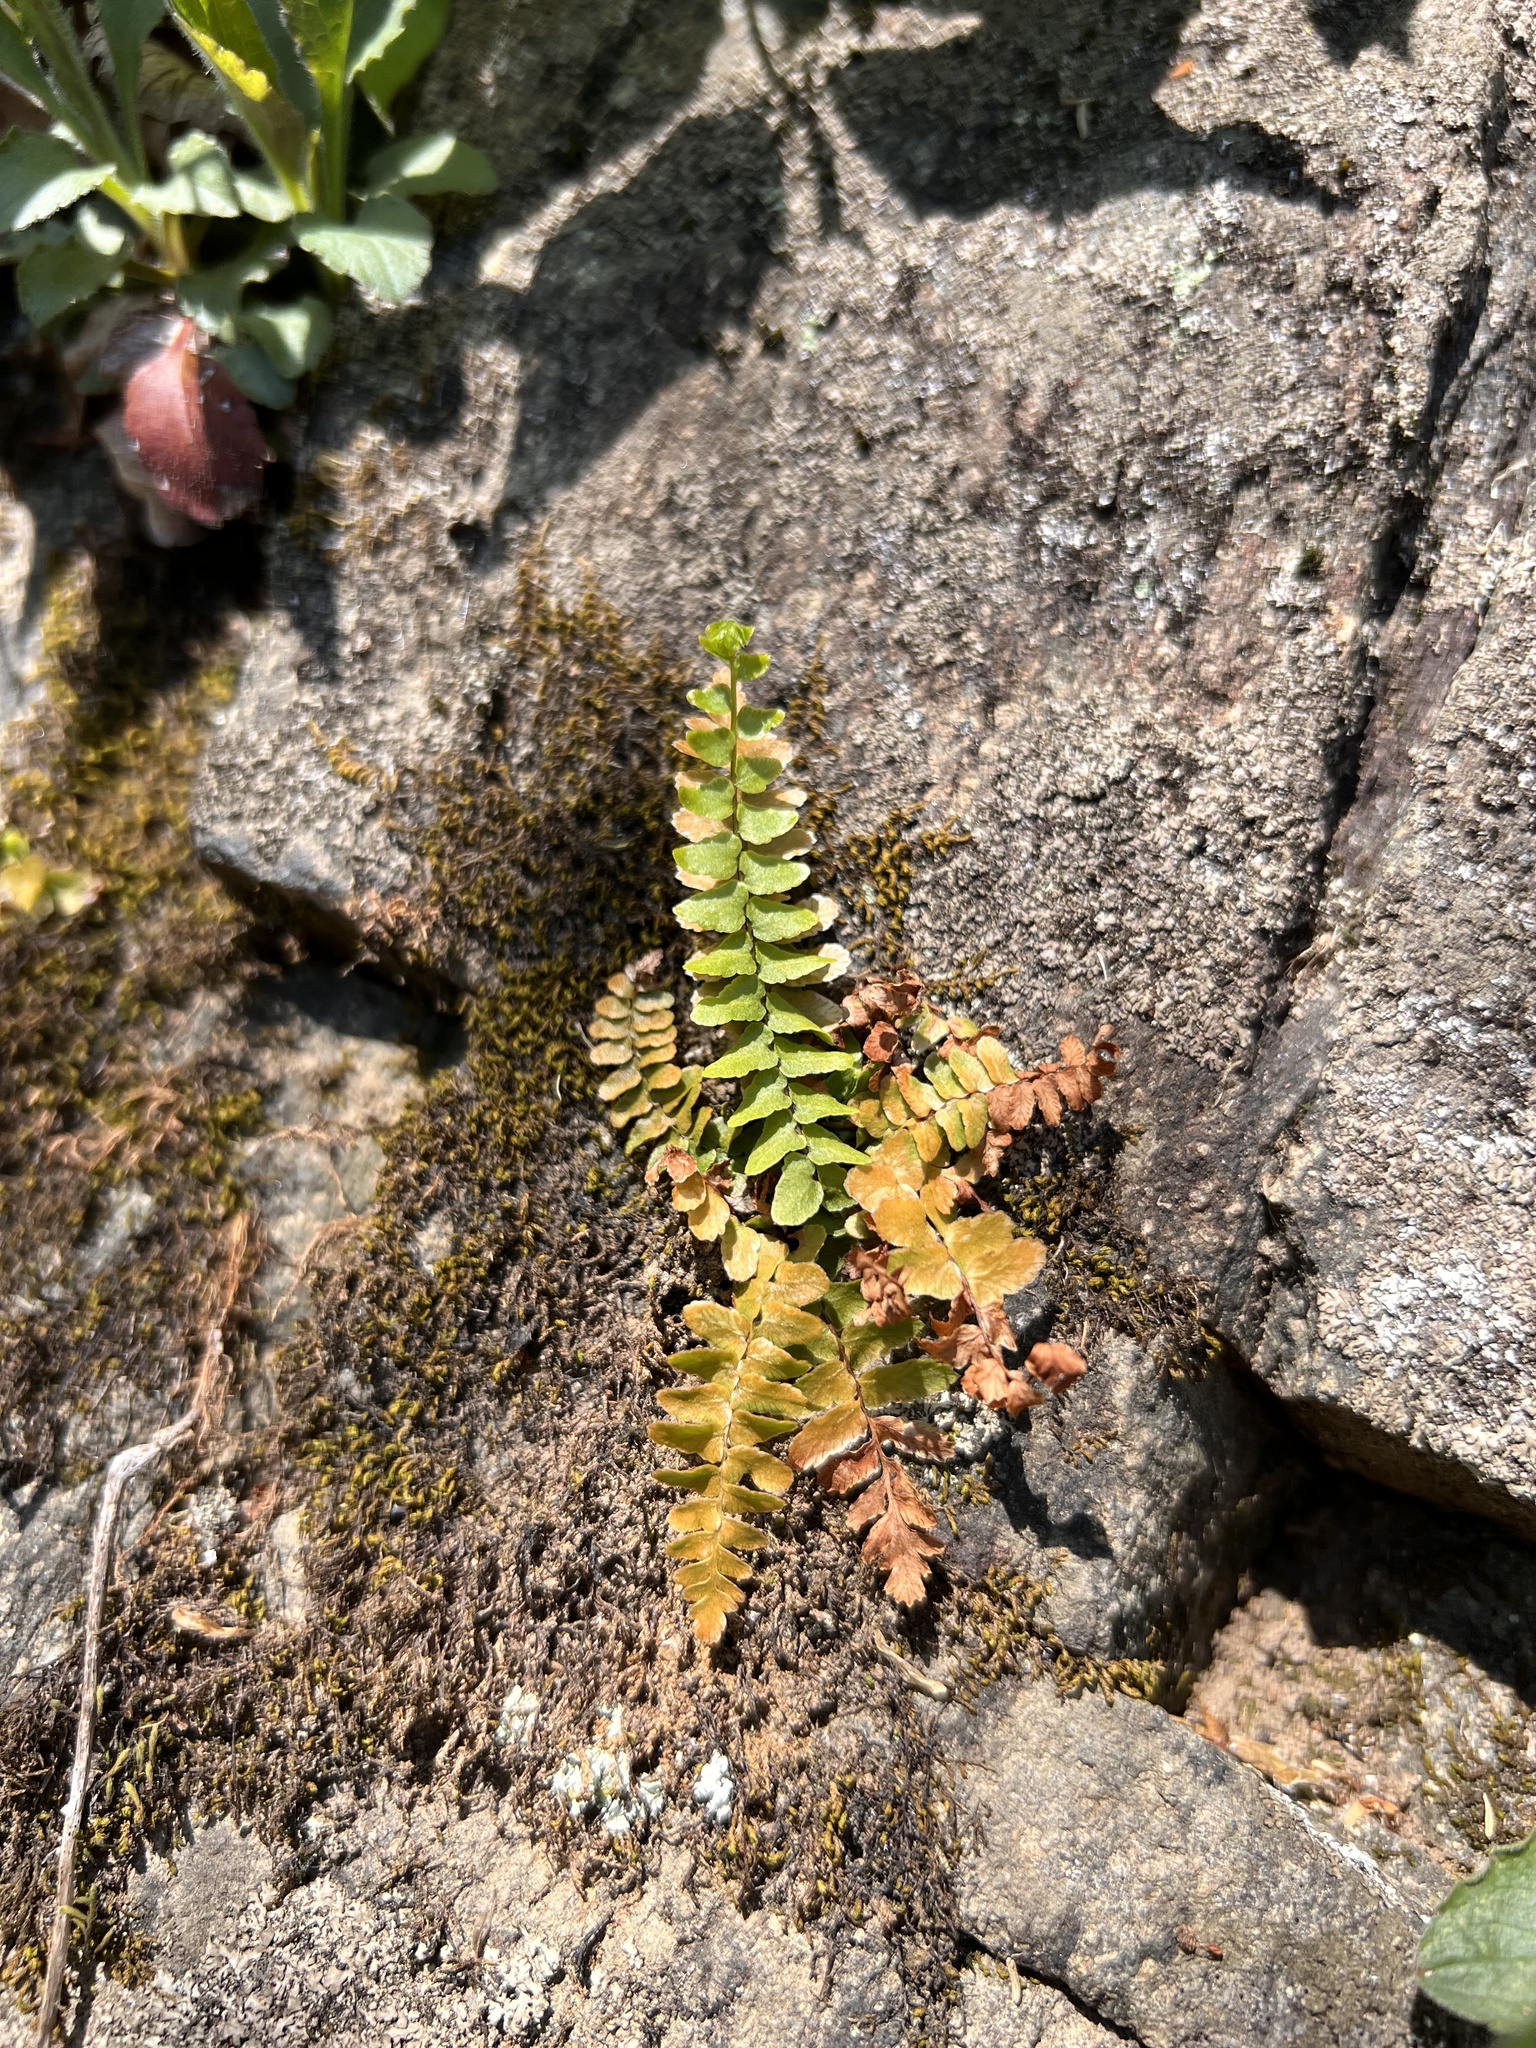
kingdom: Plantae
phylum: Tracheophyta
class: Polypodiopsida
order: Polypodiales
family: Aspleniaceae
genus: Asplenium
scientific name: Asplenium platyneuron
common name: Ebony spleenwort
